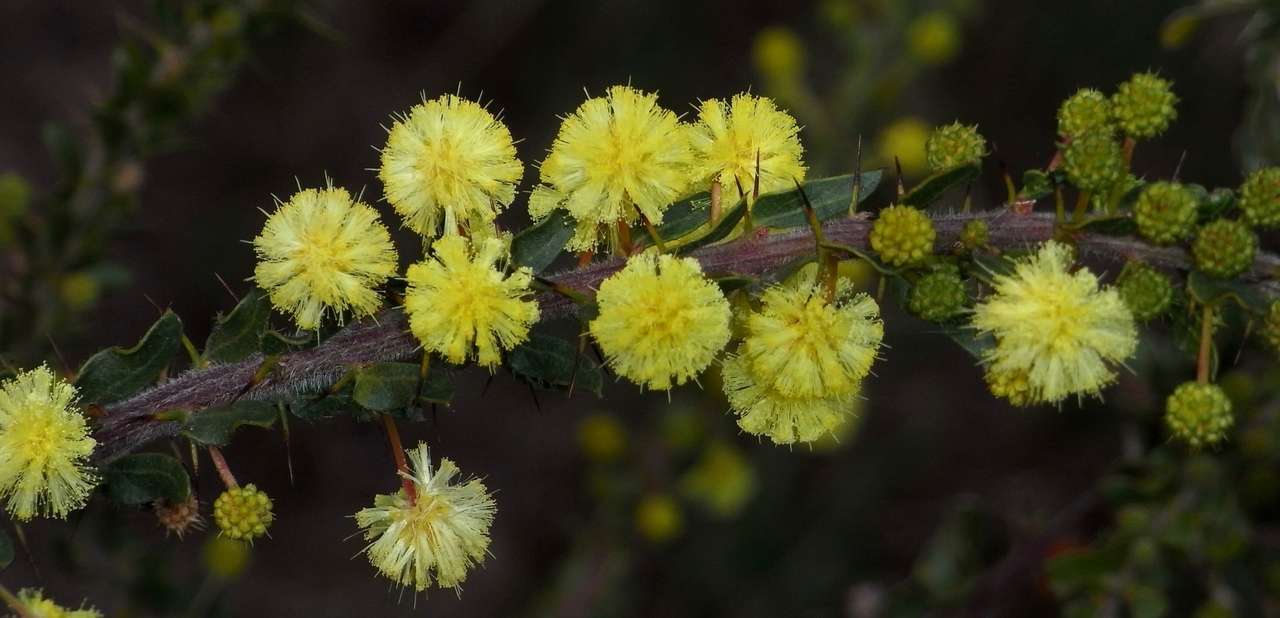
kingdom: Plantae
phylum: Tracheophyta
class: Magnoliopsida
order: Fabales
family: Fabaceae
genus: Acacia
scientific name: Acacia paradoxa
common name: Paradox acacia
